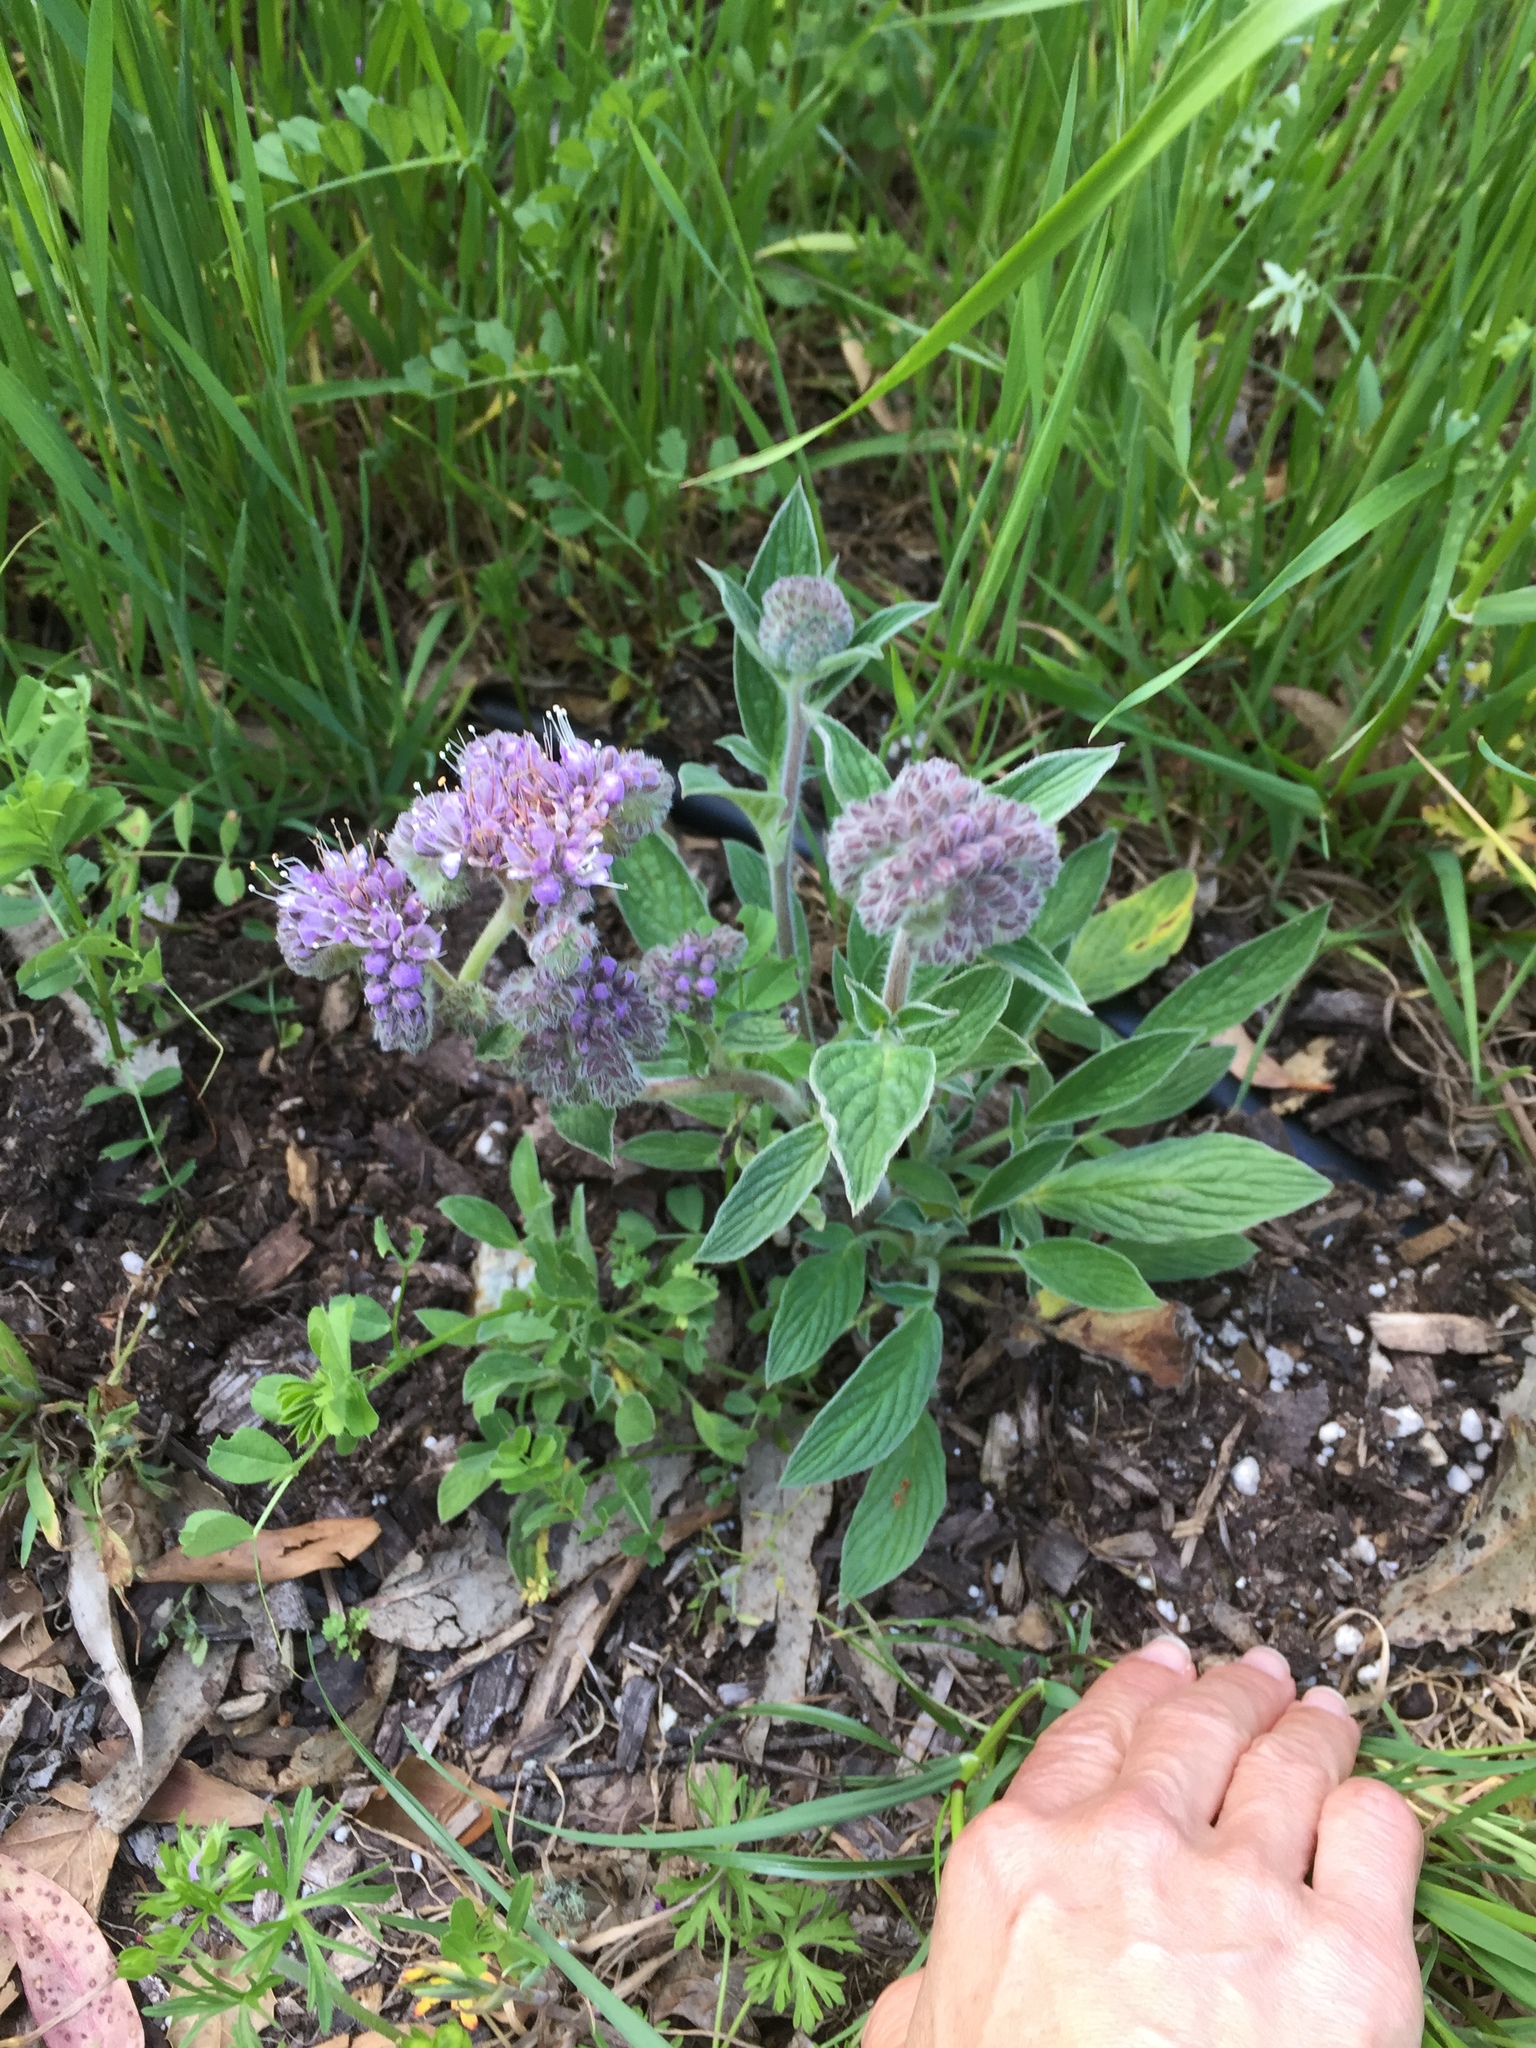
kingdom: Plantae
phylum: Tracheophyta
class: Magnoliopsida
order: Boraginales
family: Hydrophyllaceae
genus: Phacelia
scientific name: Phacelia californica
